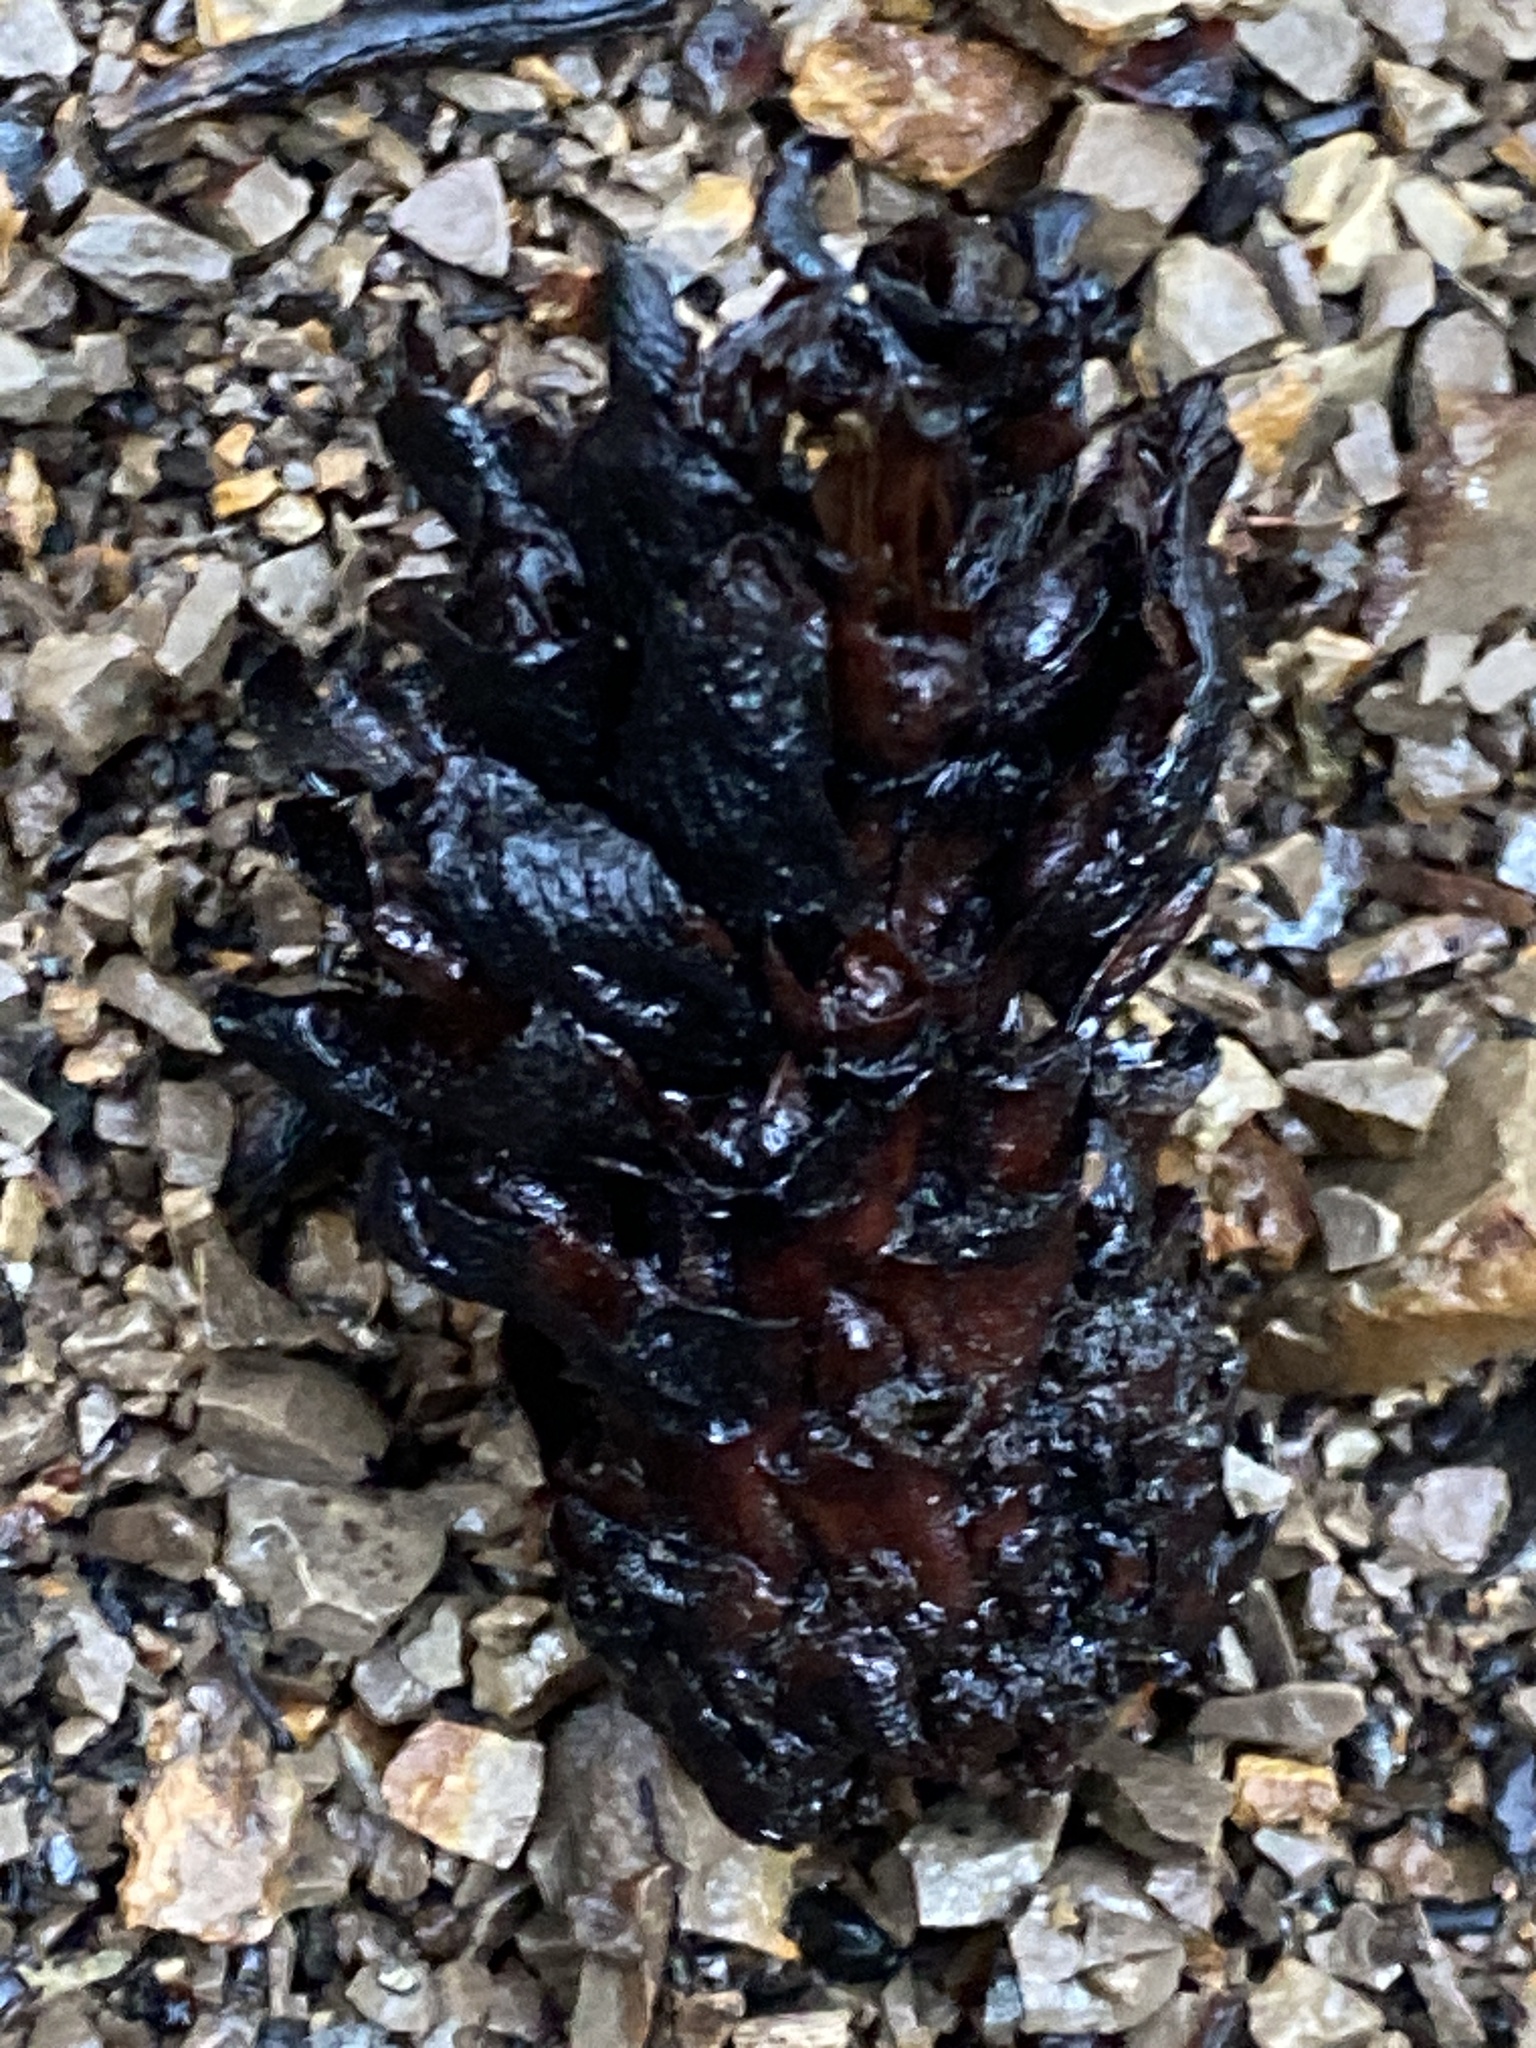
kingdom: Plantae
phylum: Tracheophyta
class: Magnoliopsida
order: Lamiales
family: Orobanchaceae
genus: Kopsiopsis
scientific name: Kopsiopsis strobilacea
